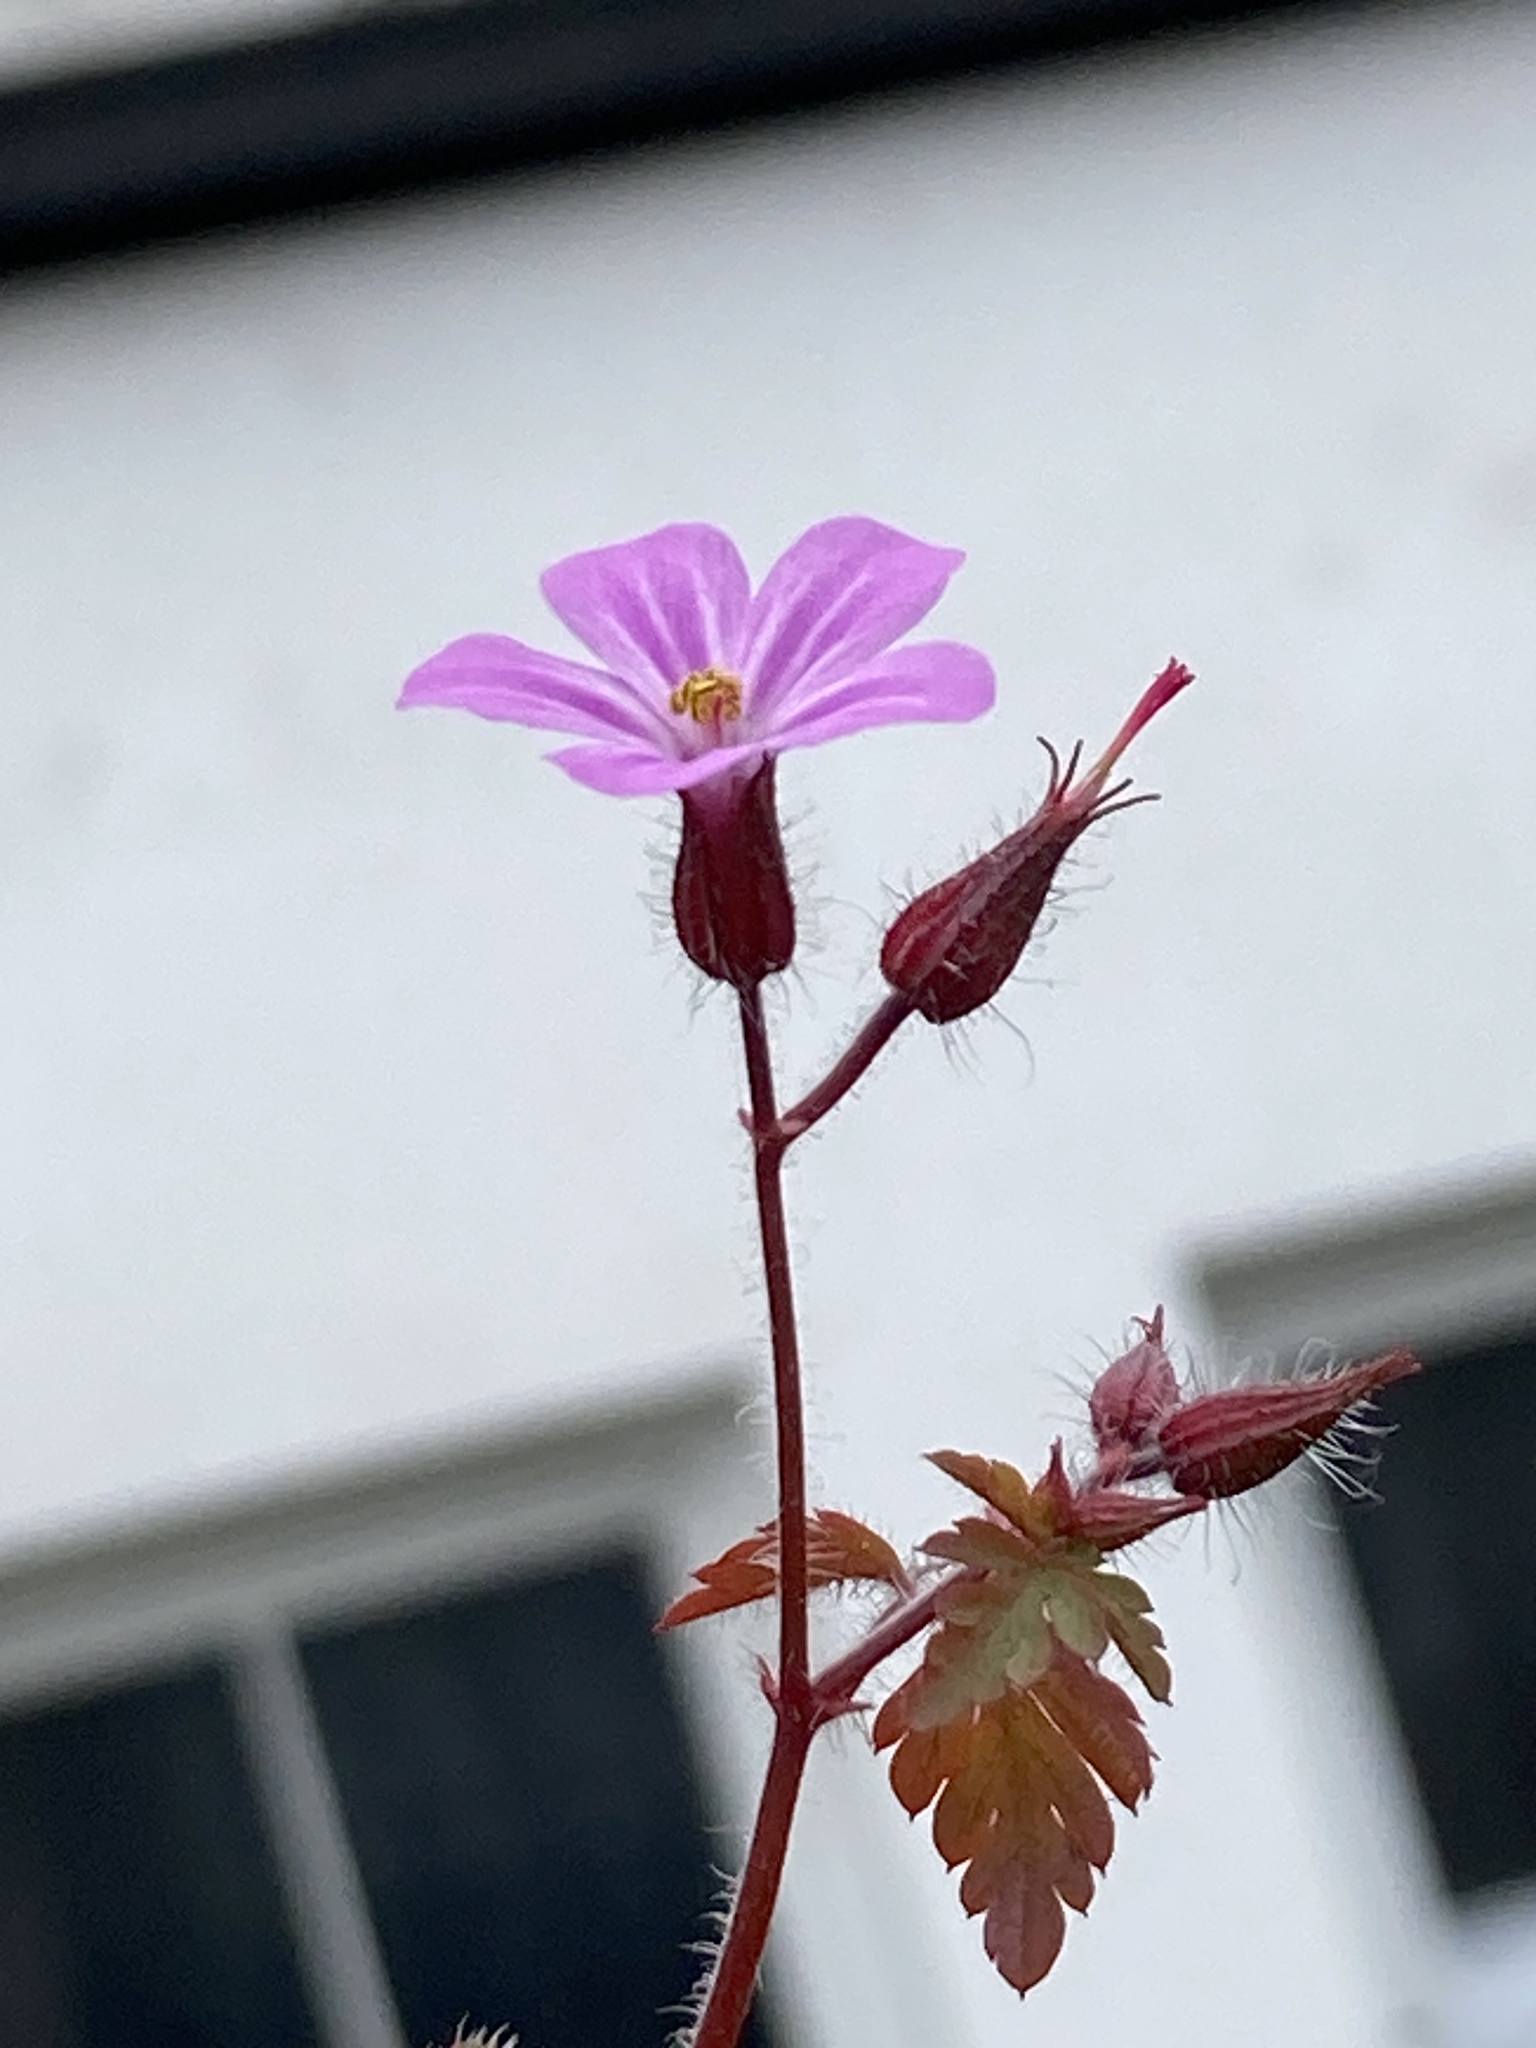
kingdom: Plantae
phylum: Tracheophyta
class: Magnoliopsida
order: Geraniales
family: Geraniaceae
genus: Geranium
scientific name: Geranium robertianum
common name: Herb-robert
